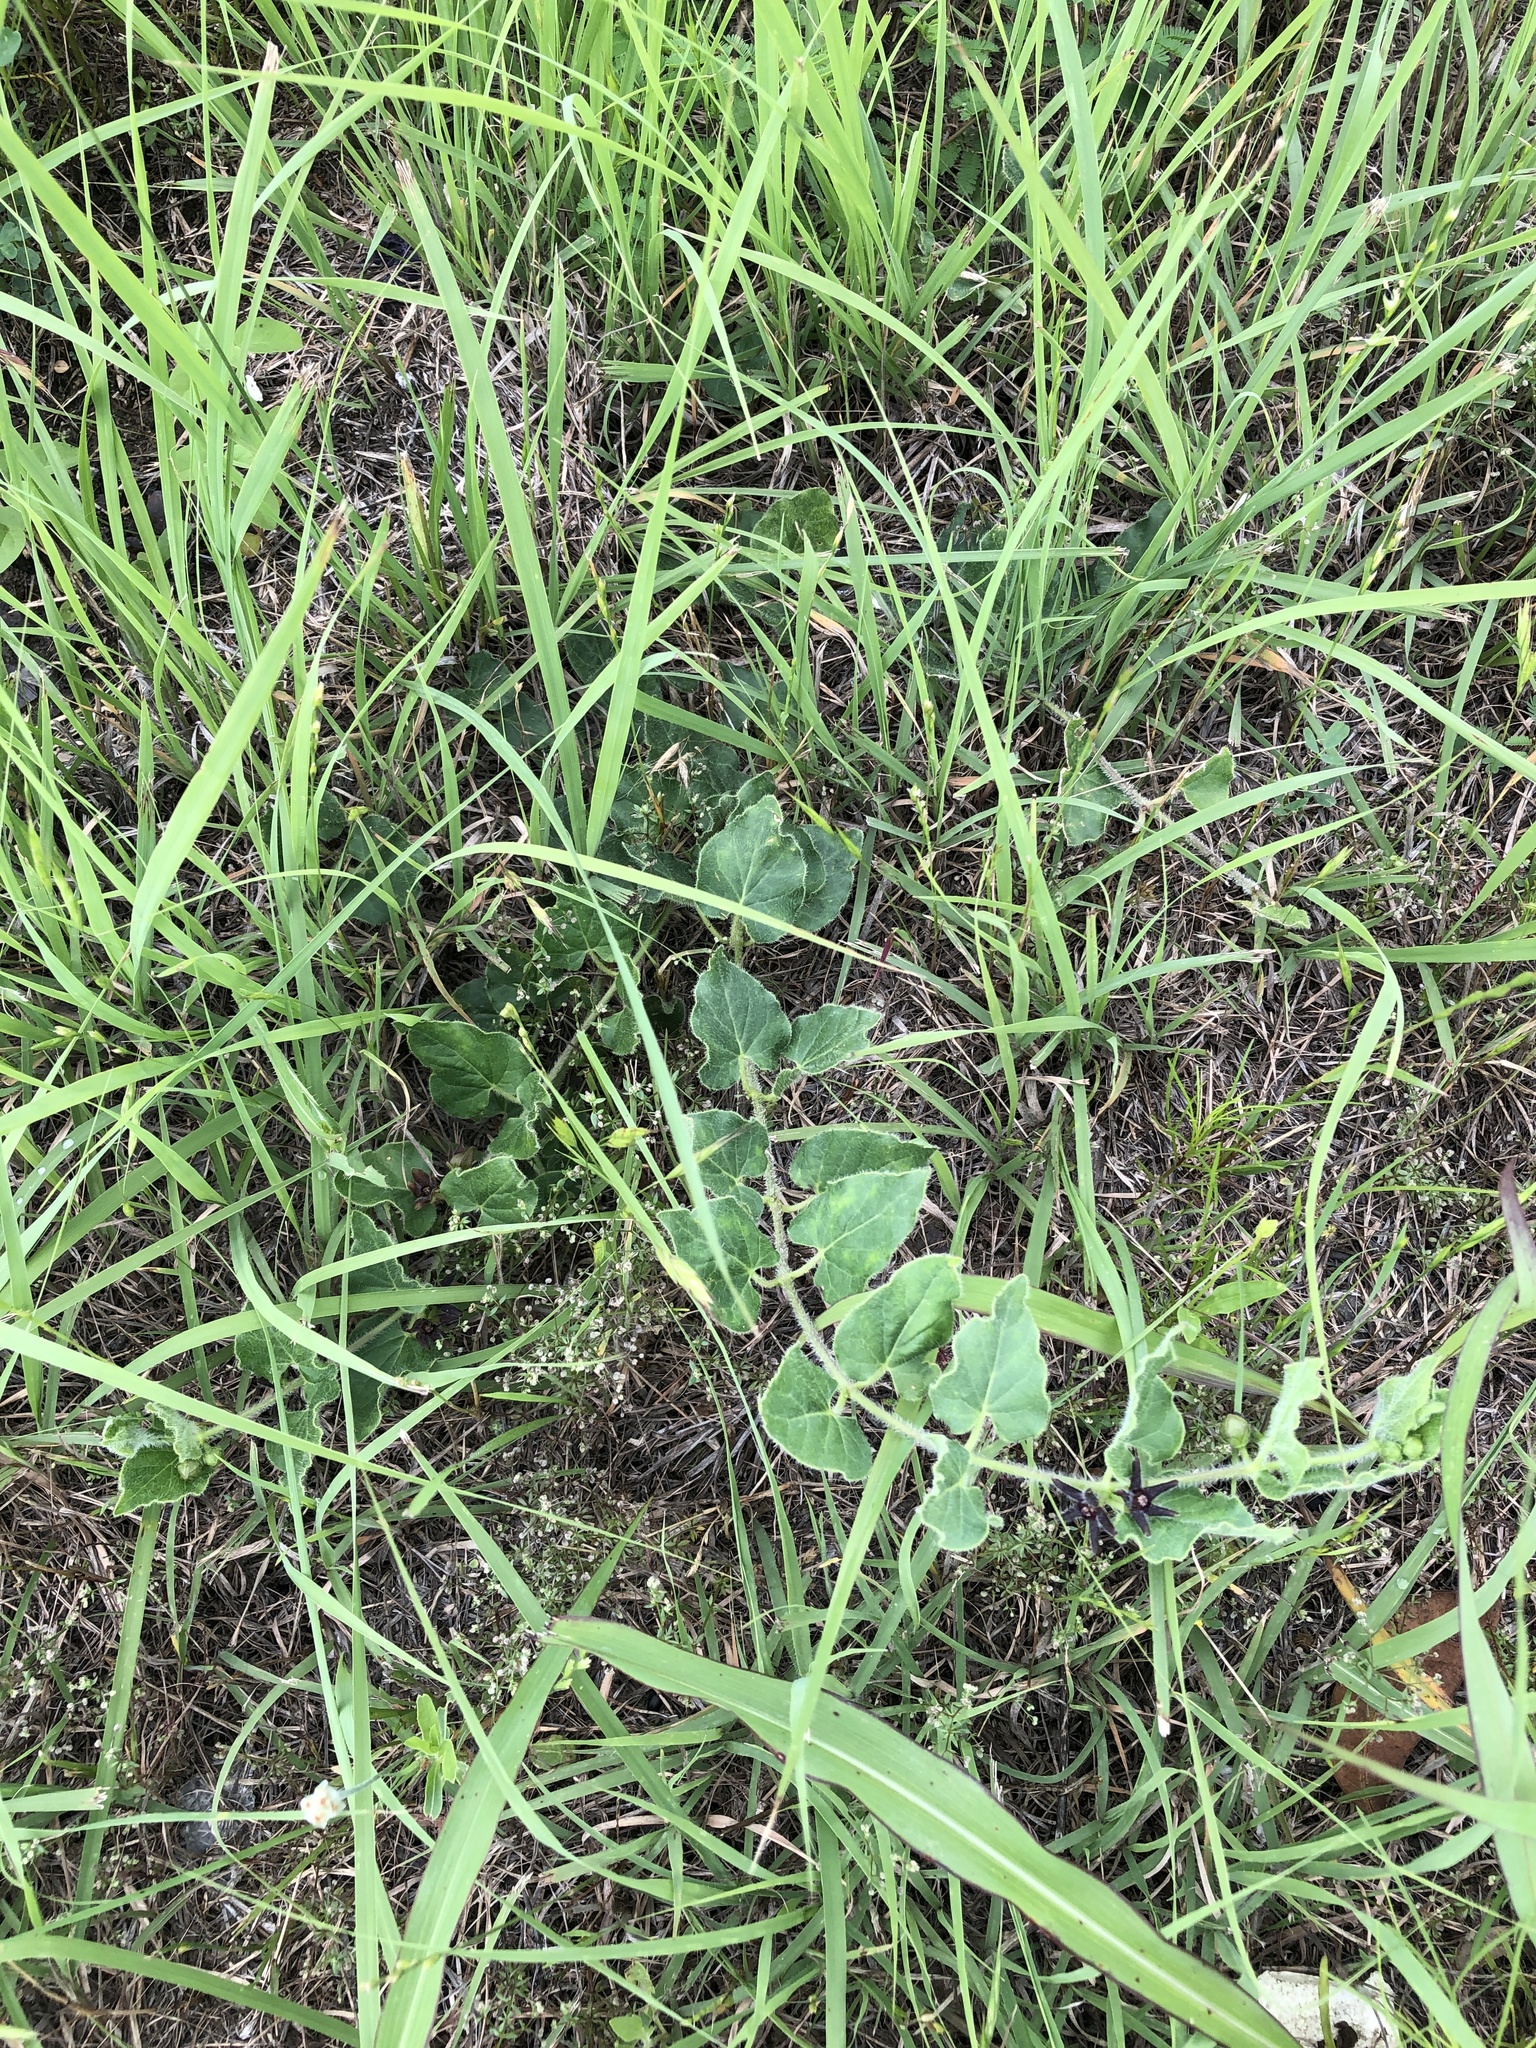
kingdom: Plantae
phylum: Tracheophyta
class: Magnoliopsida
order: Gentianales
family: Apocynaceae
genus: Chthamalia
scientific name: Chthamalia biflora
